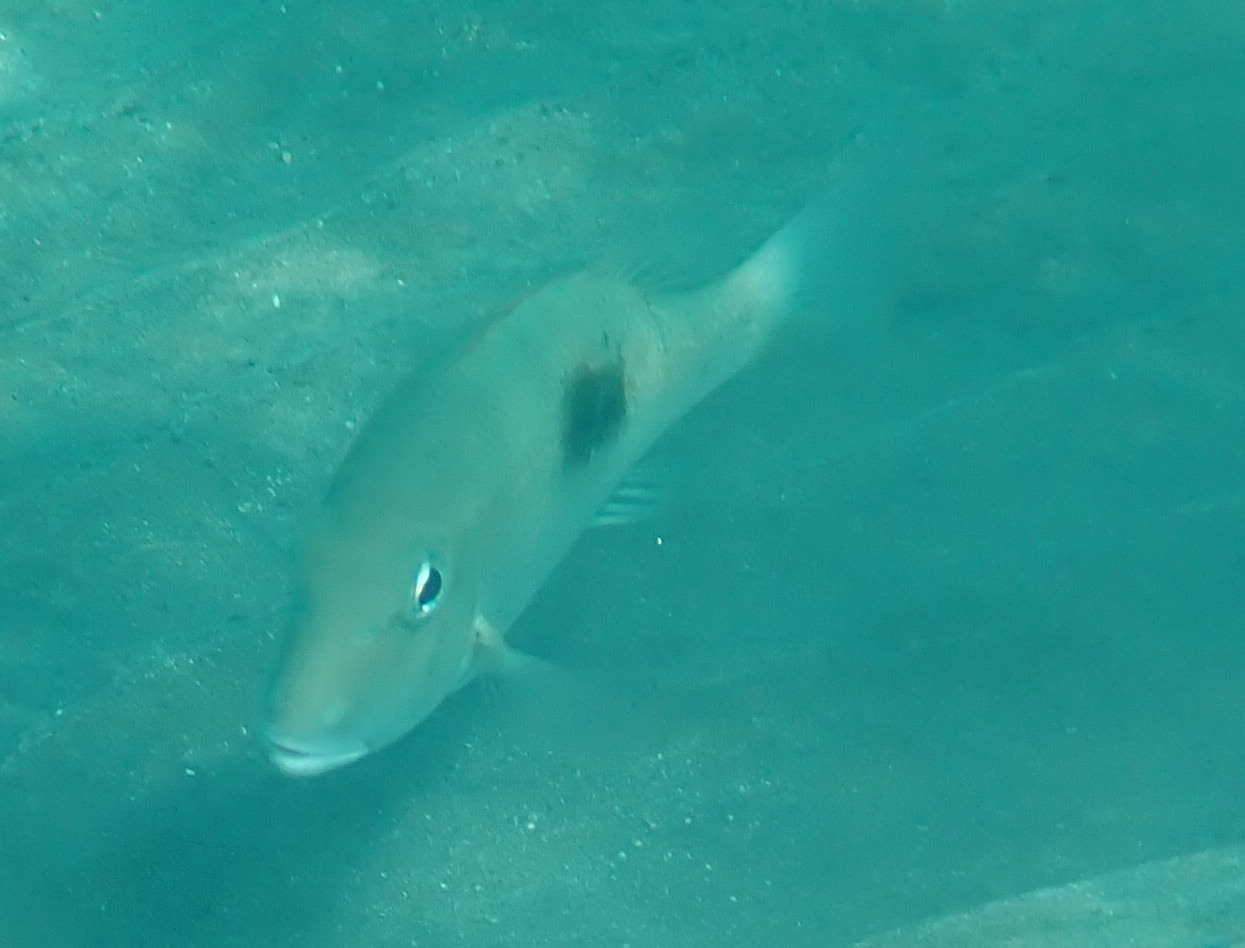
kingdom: Animalia
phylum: Chordata
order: Perciformes
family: Lethrinidae
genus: Lethrinus
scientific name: Lethrinus harak
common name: Blackspot emperor
